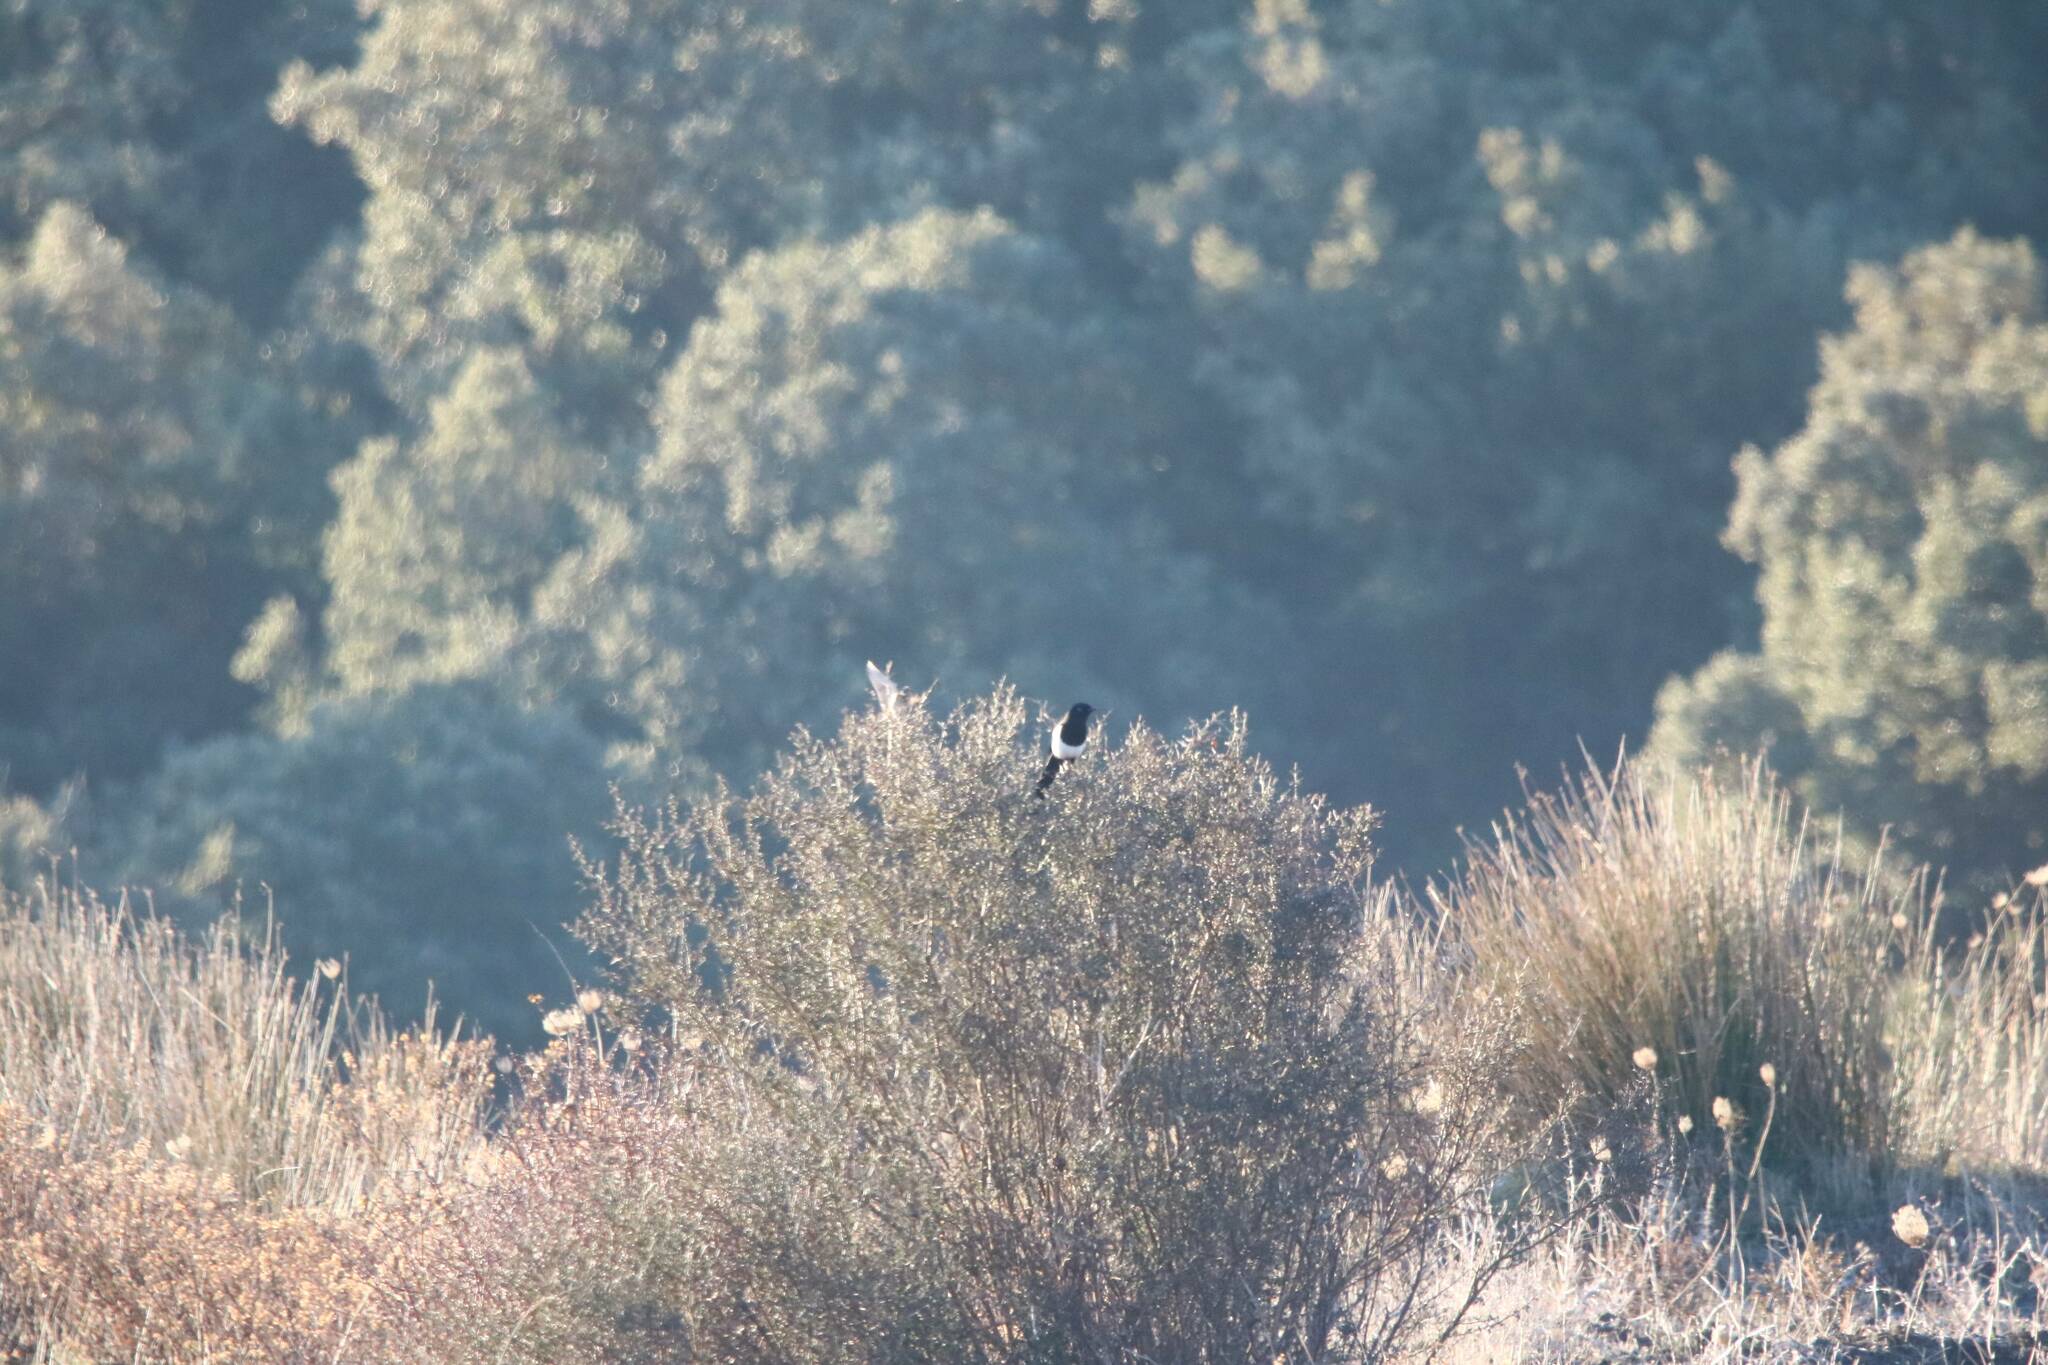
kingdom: Animalia
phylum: Chordata
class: Aves
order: Passeriformes
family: Corvidae
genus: Pica
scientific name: Pica mauritanica
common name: Maghreb magpie
